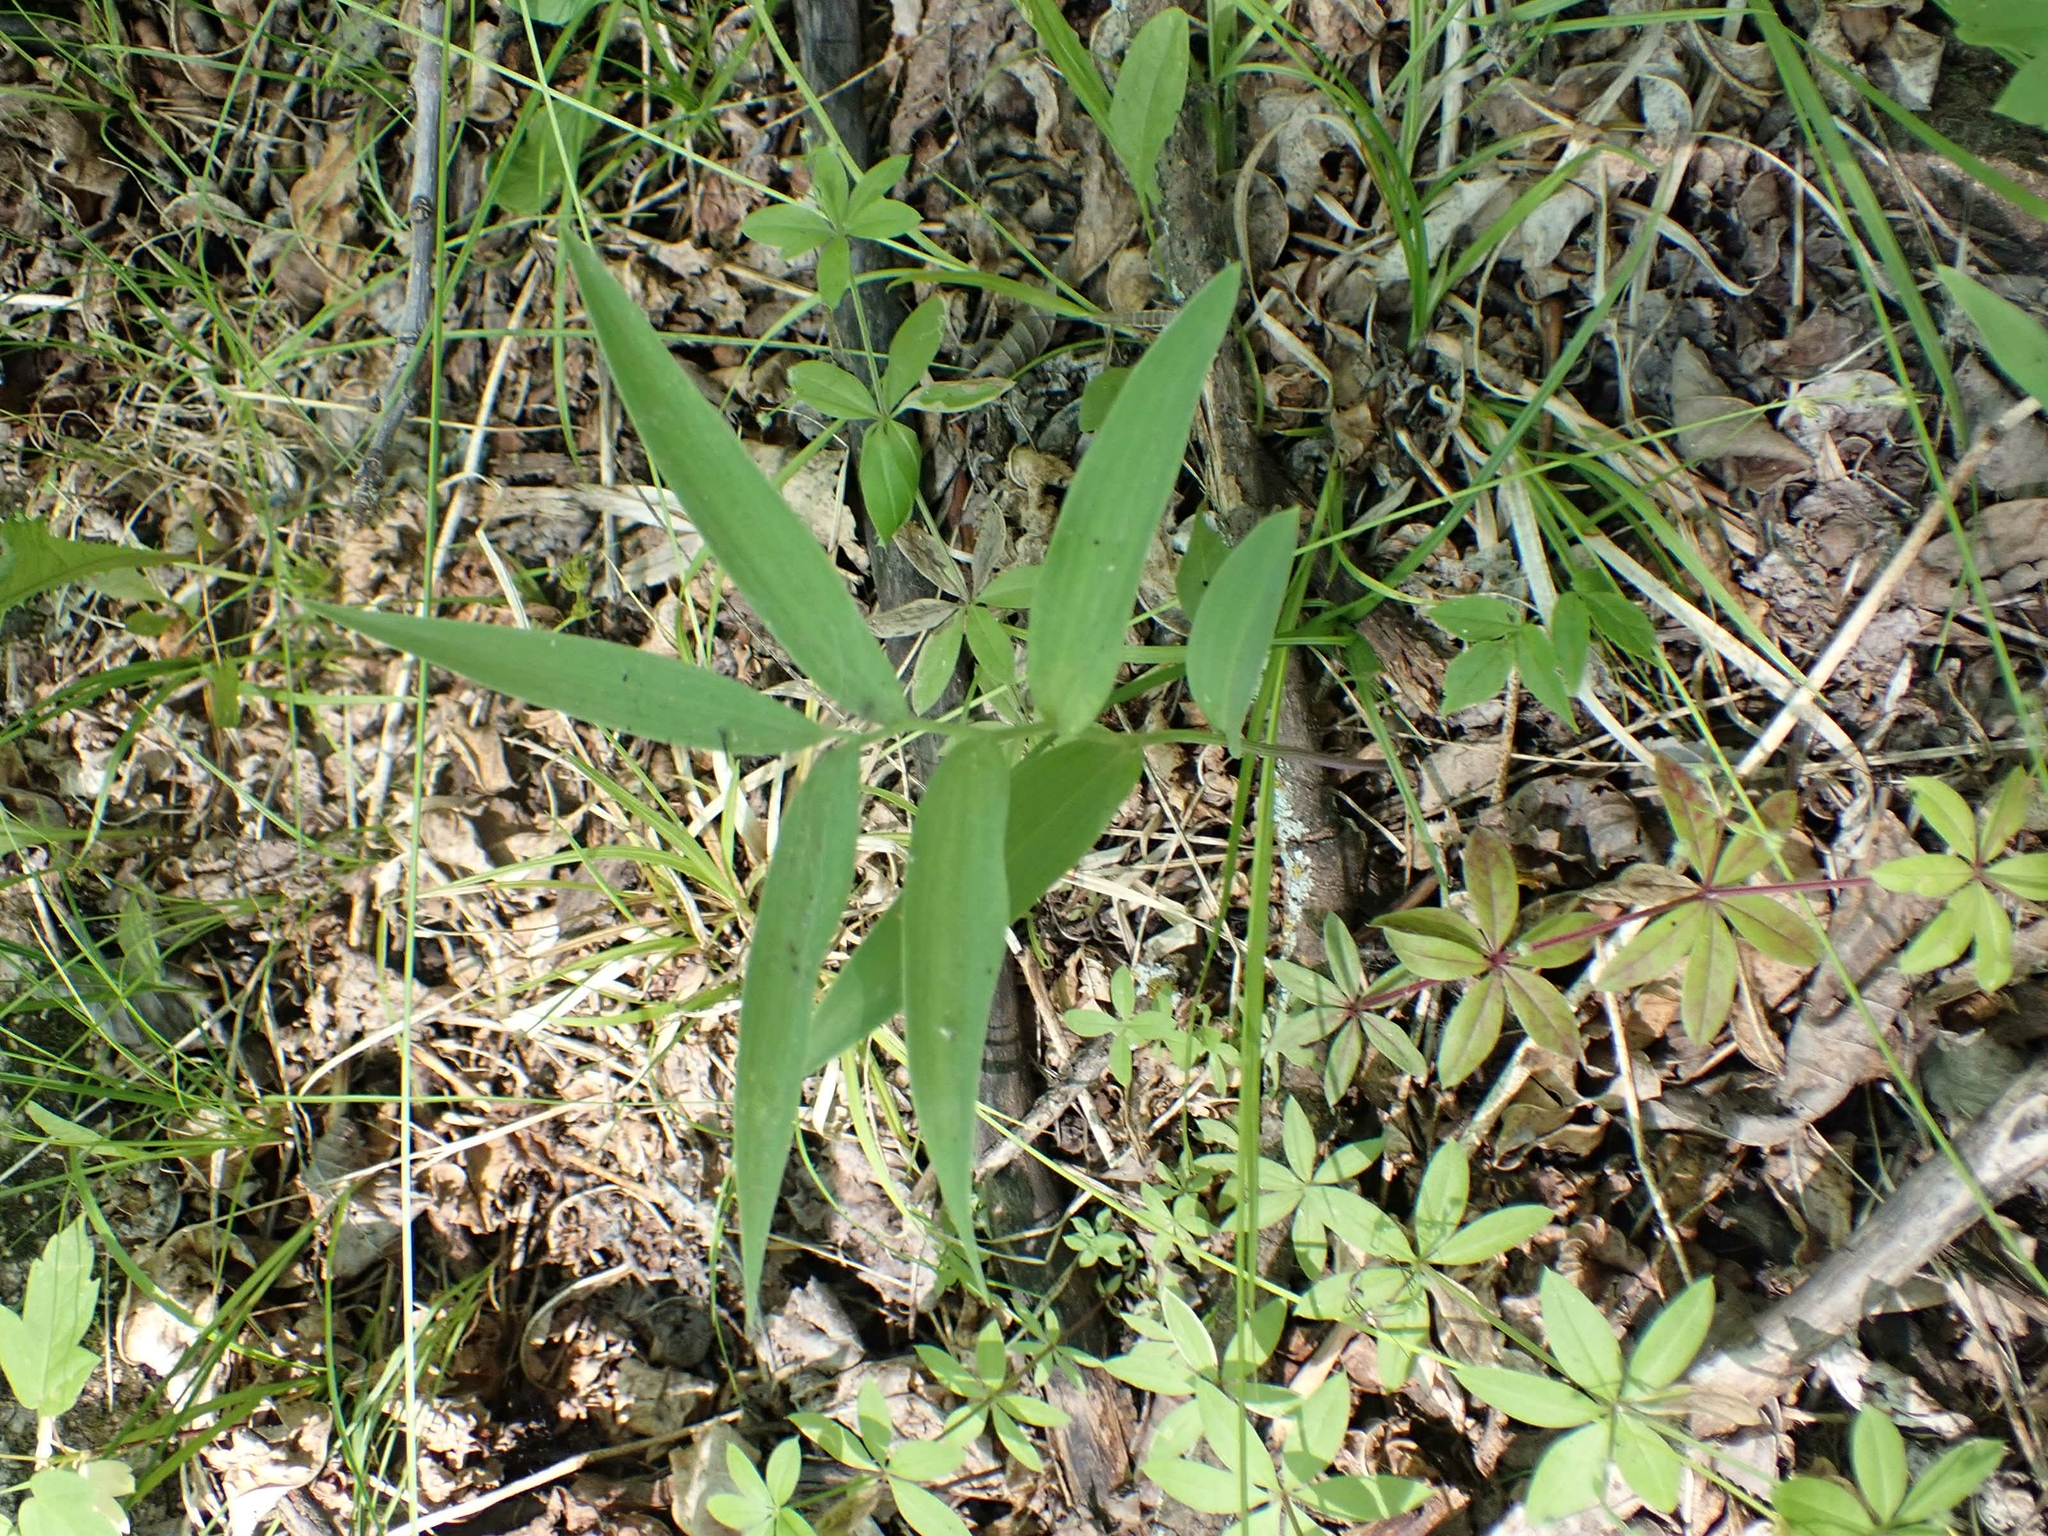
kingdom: Plantae
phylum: Tracheophyta
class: Liliopsida
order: Asparagales
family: Asparagaceae
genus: Maianthemum
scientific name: Maianthemum stellatum
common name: Little false solomon's seal
